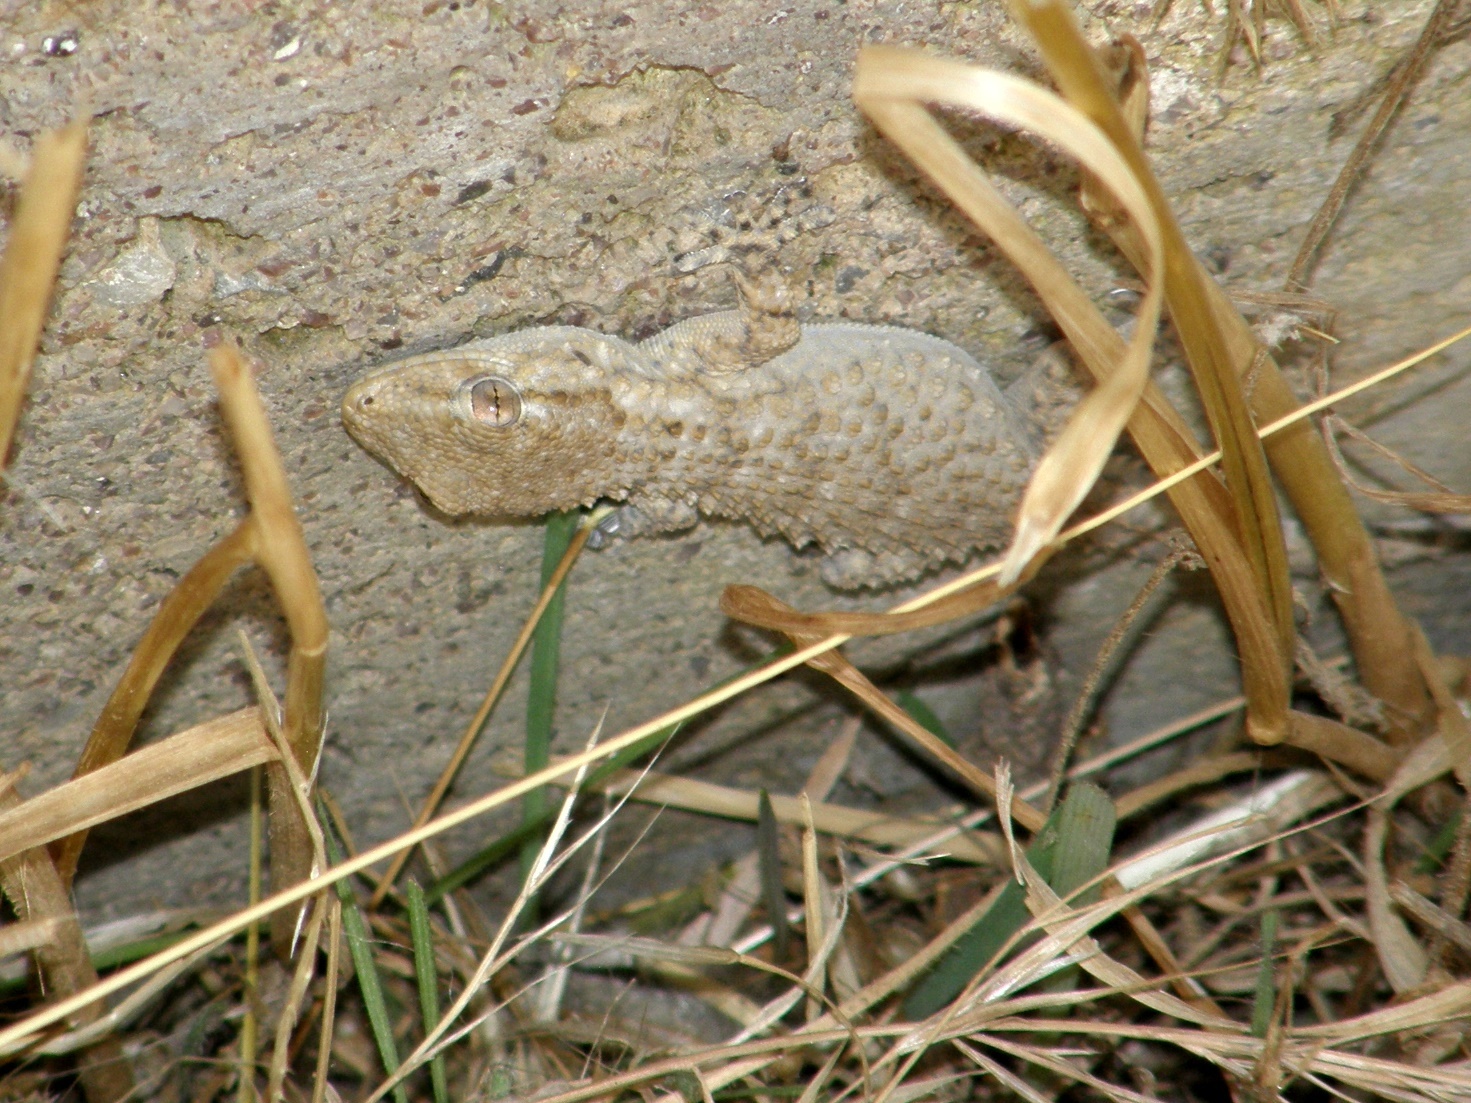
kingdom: Animalia
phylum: Chordata
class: Squamata
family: Phyllodactylidae
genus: Tarentola
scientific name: Tarentola mauritanica
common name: Moorish gecko
